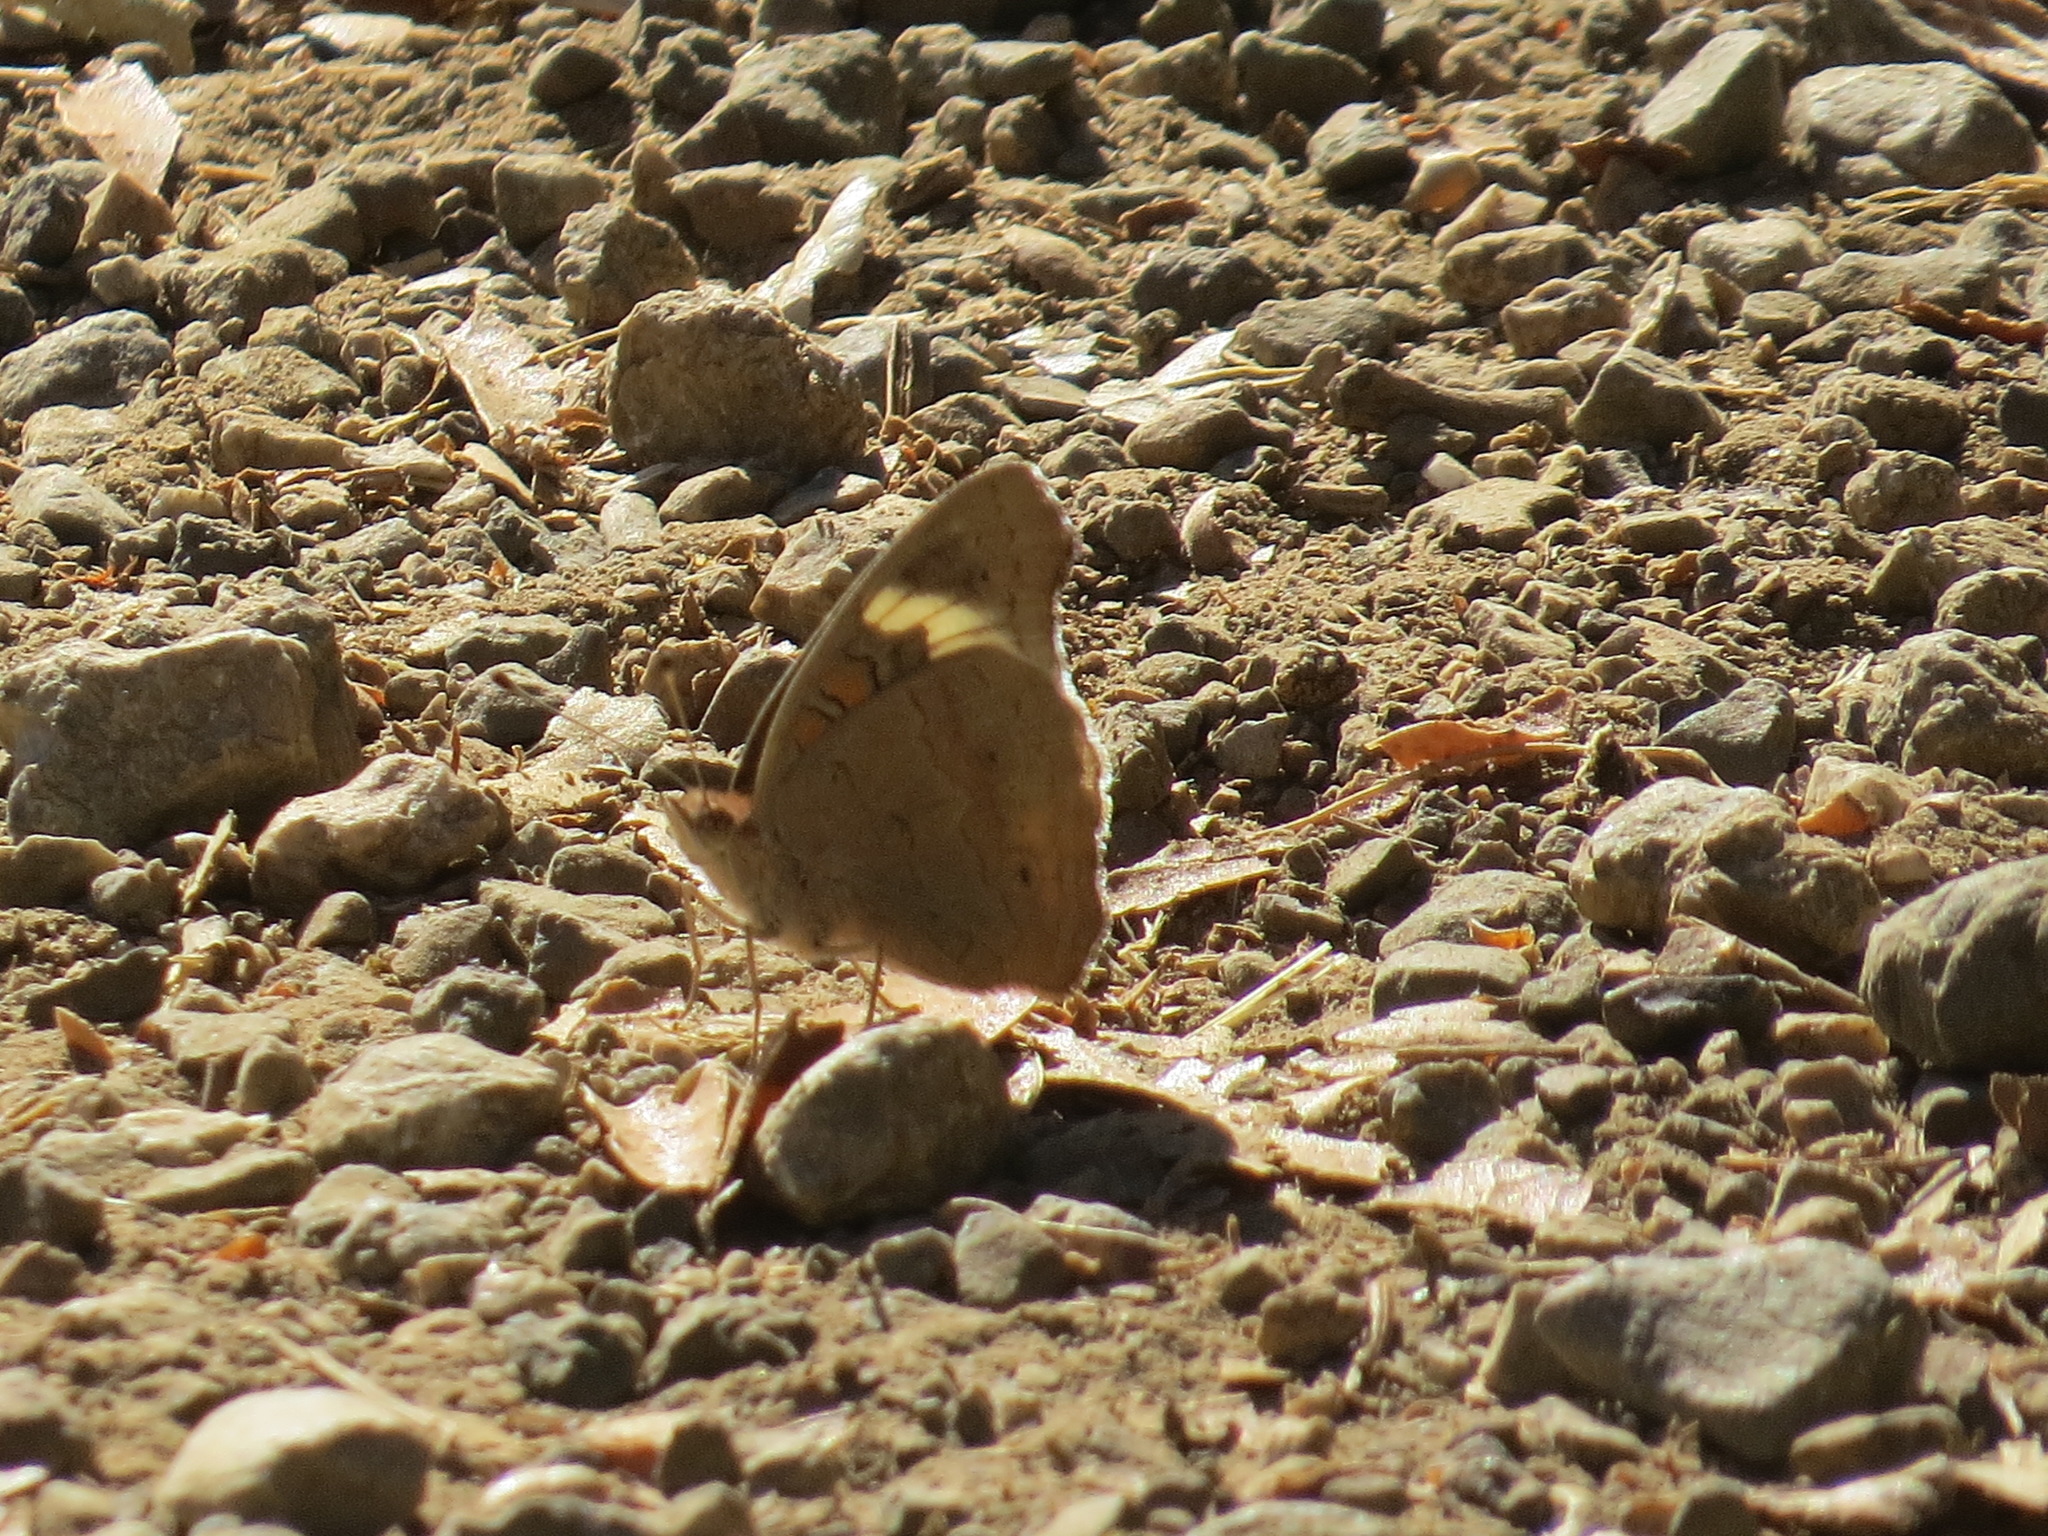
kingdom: Animalia
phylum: Arthropoda
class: Insecta
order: Lepidoptera
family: Nymphalidae
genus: Junonia
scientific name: Junonia grisea
